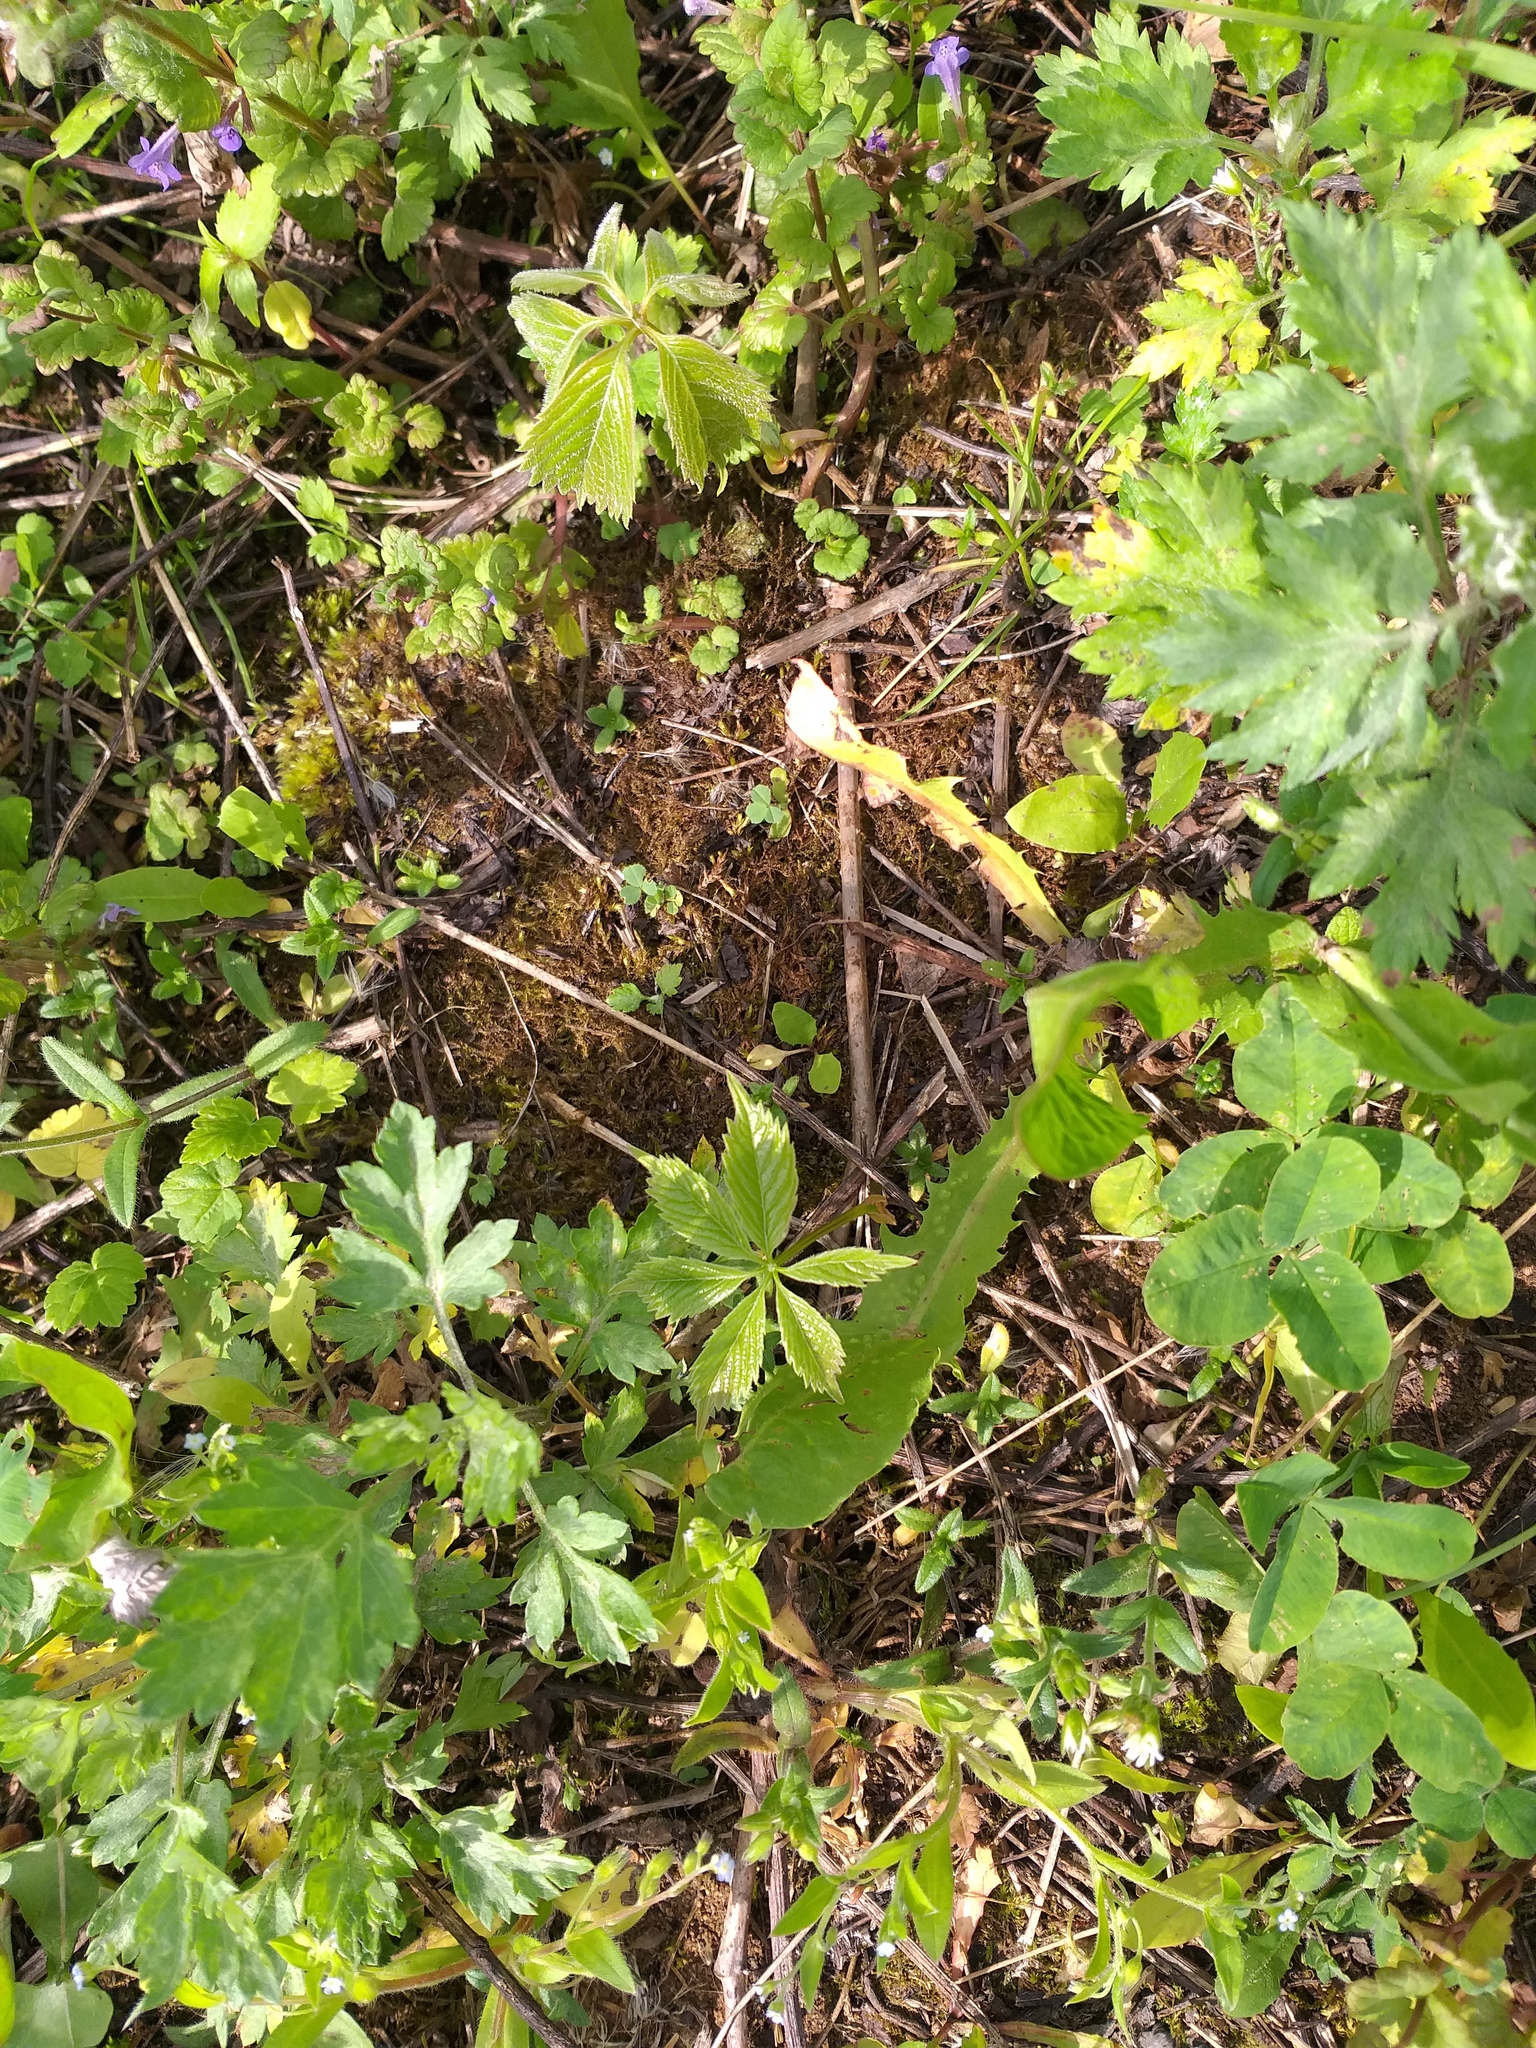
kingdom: Plantae
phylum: Tracheophyta
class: Magnoliopsida
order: Vitales
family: Vitaceae
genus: Parthenocissus
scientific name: Parthenocissus inserta
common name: False virginia-creeper
